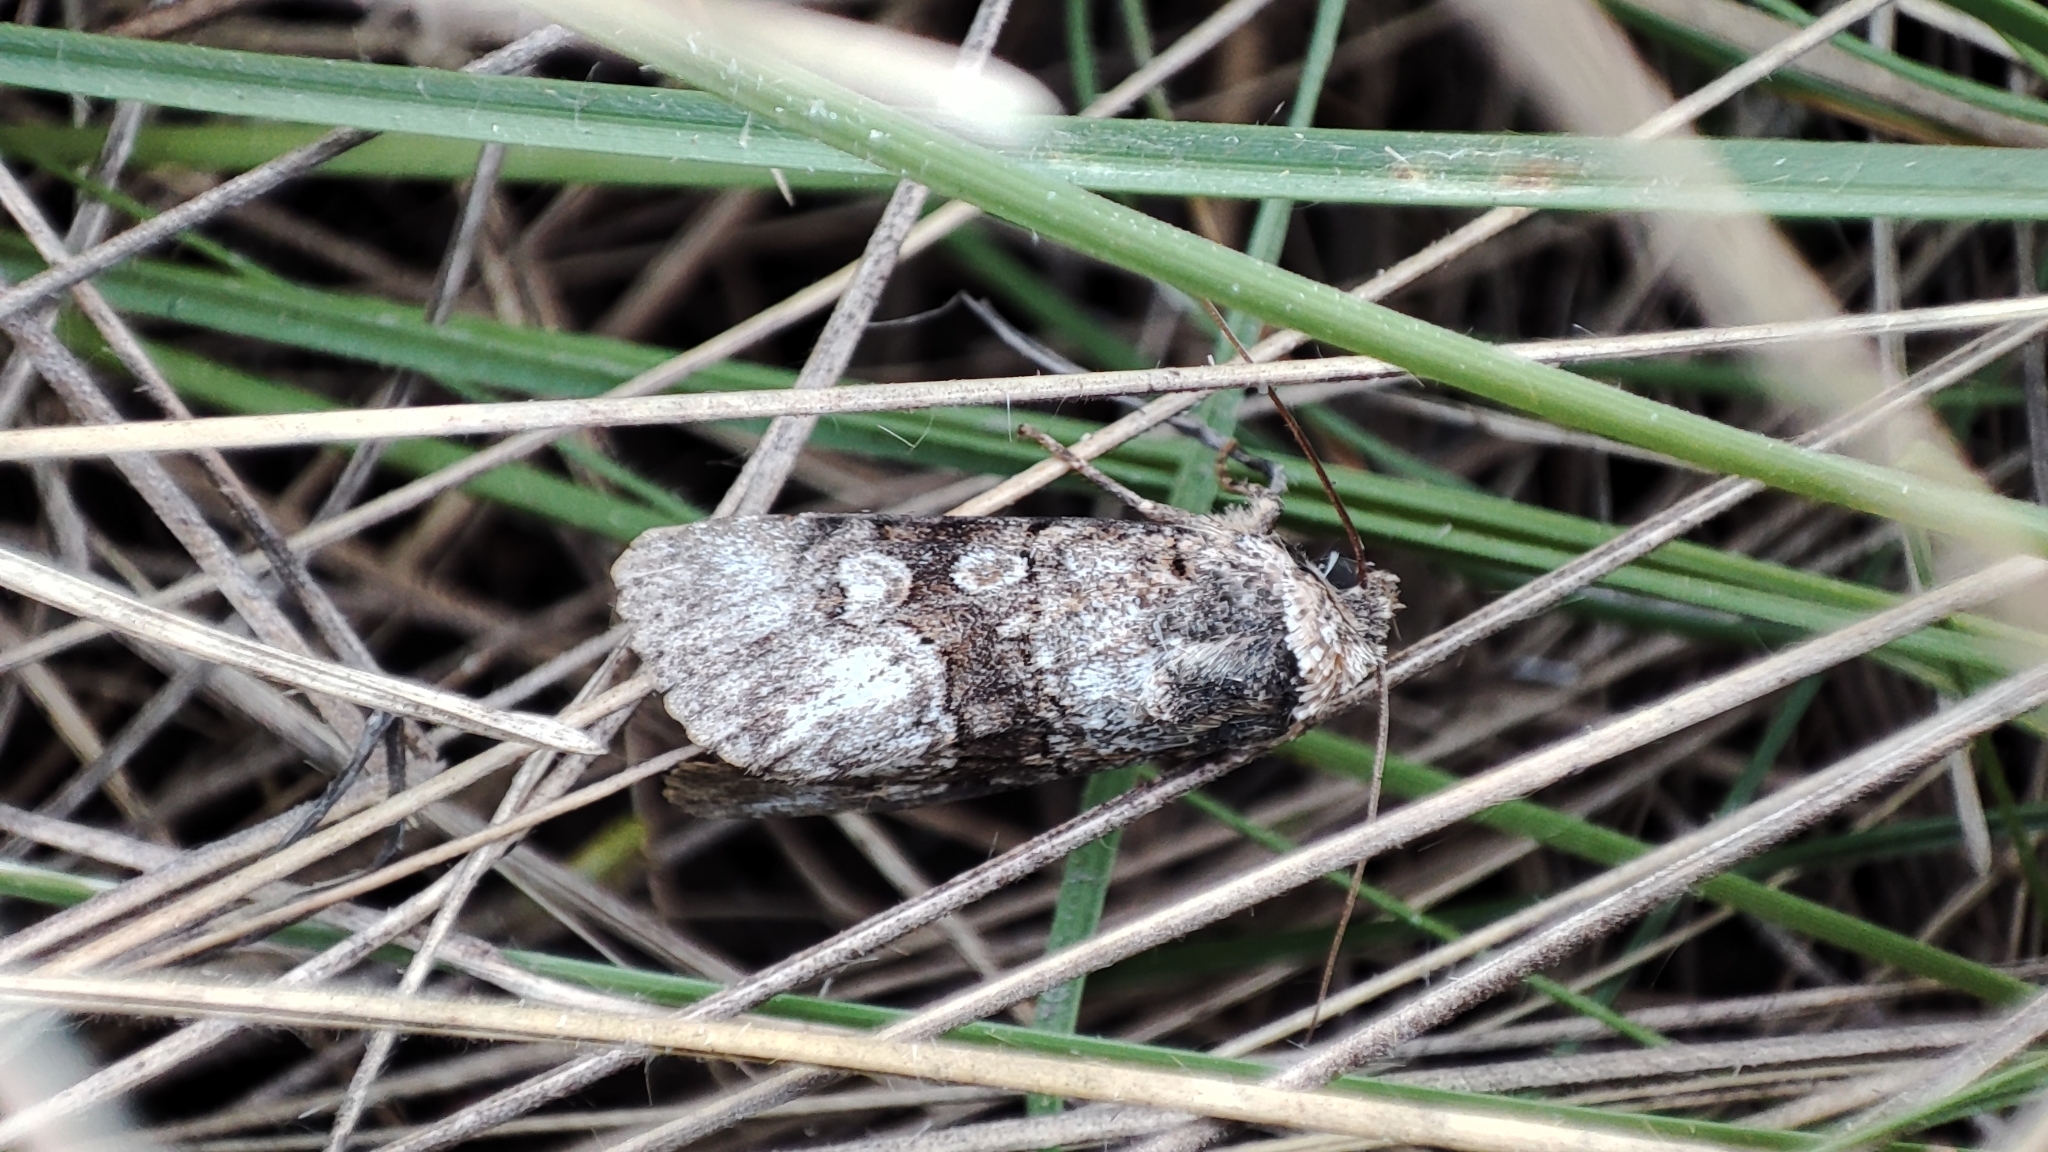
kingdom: Animalia
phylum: Arthropoda
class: Insecta
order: Lepidoptera
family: Noctuidae
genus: Sympistis
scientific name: Sympistis
